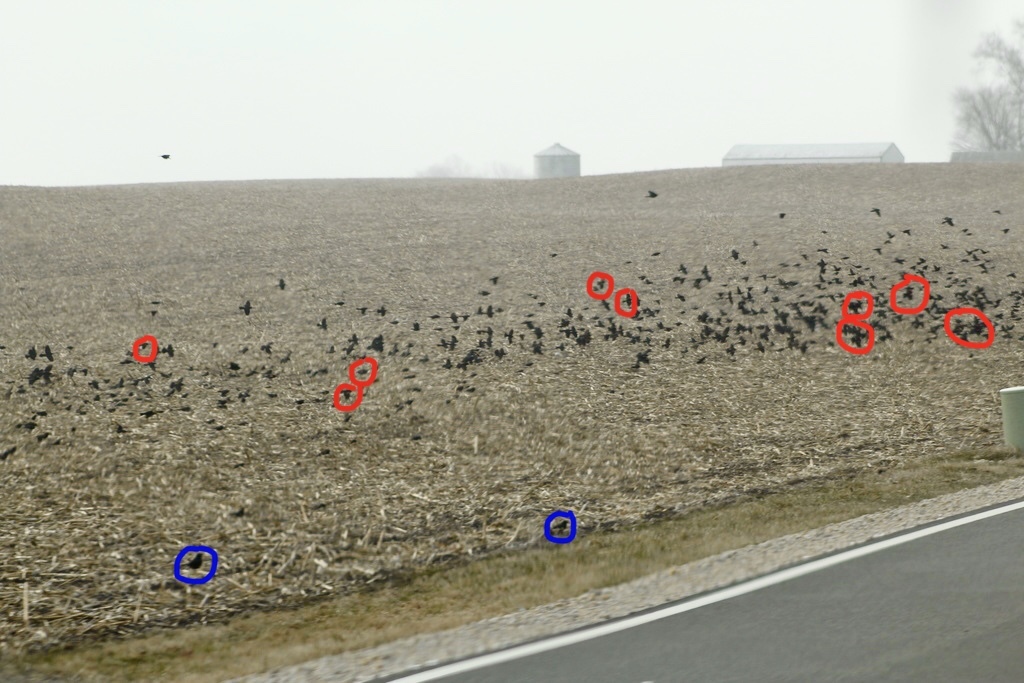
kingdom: Animalia
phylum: Chordata
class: Aves
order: Passeriformes
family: Icteridae
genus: Molothrus
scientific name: Molothrus ater
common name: Brown-headed cowbird
